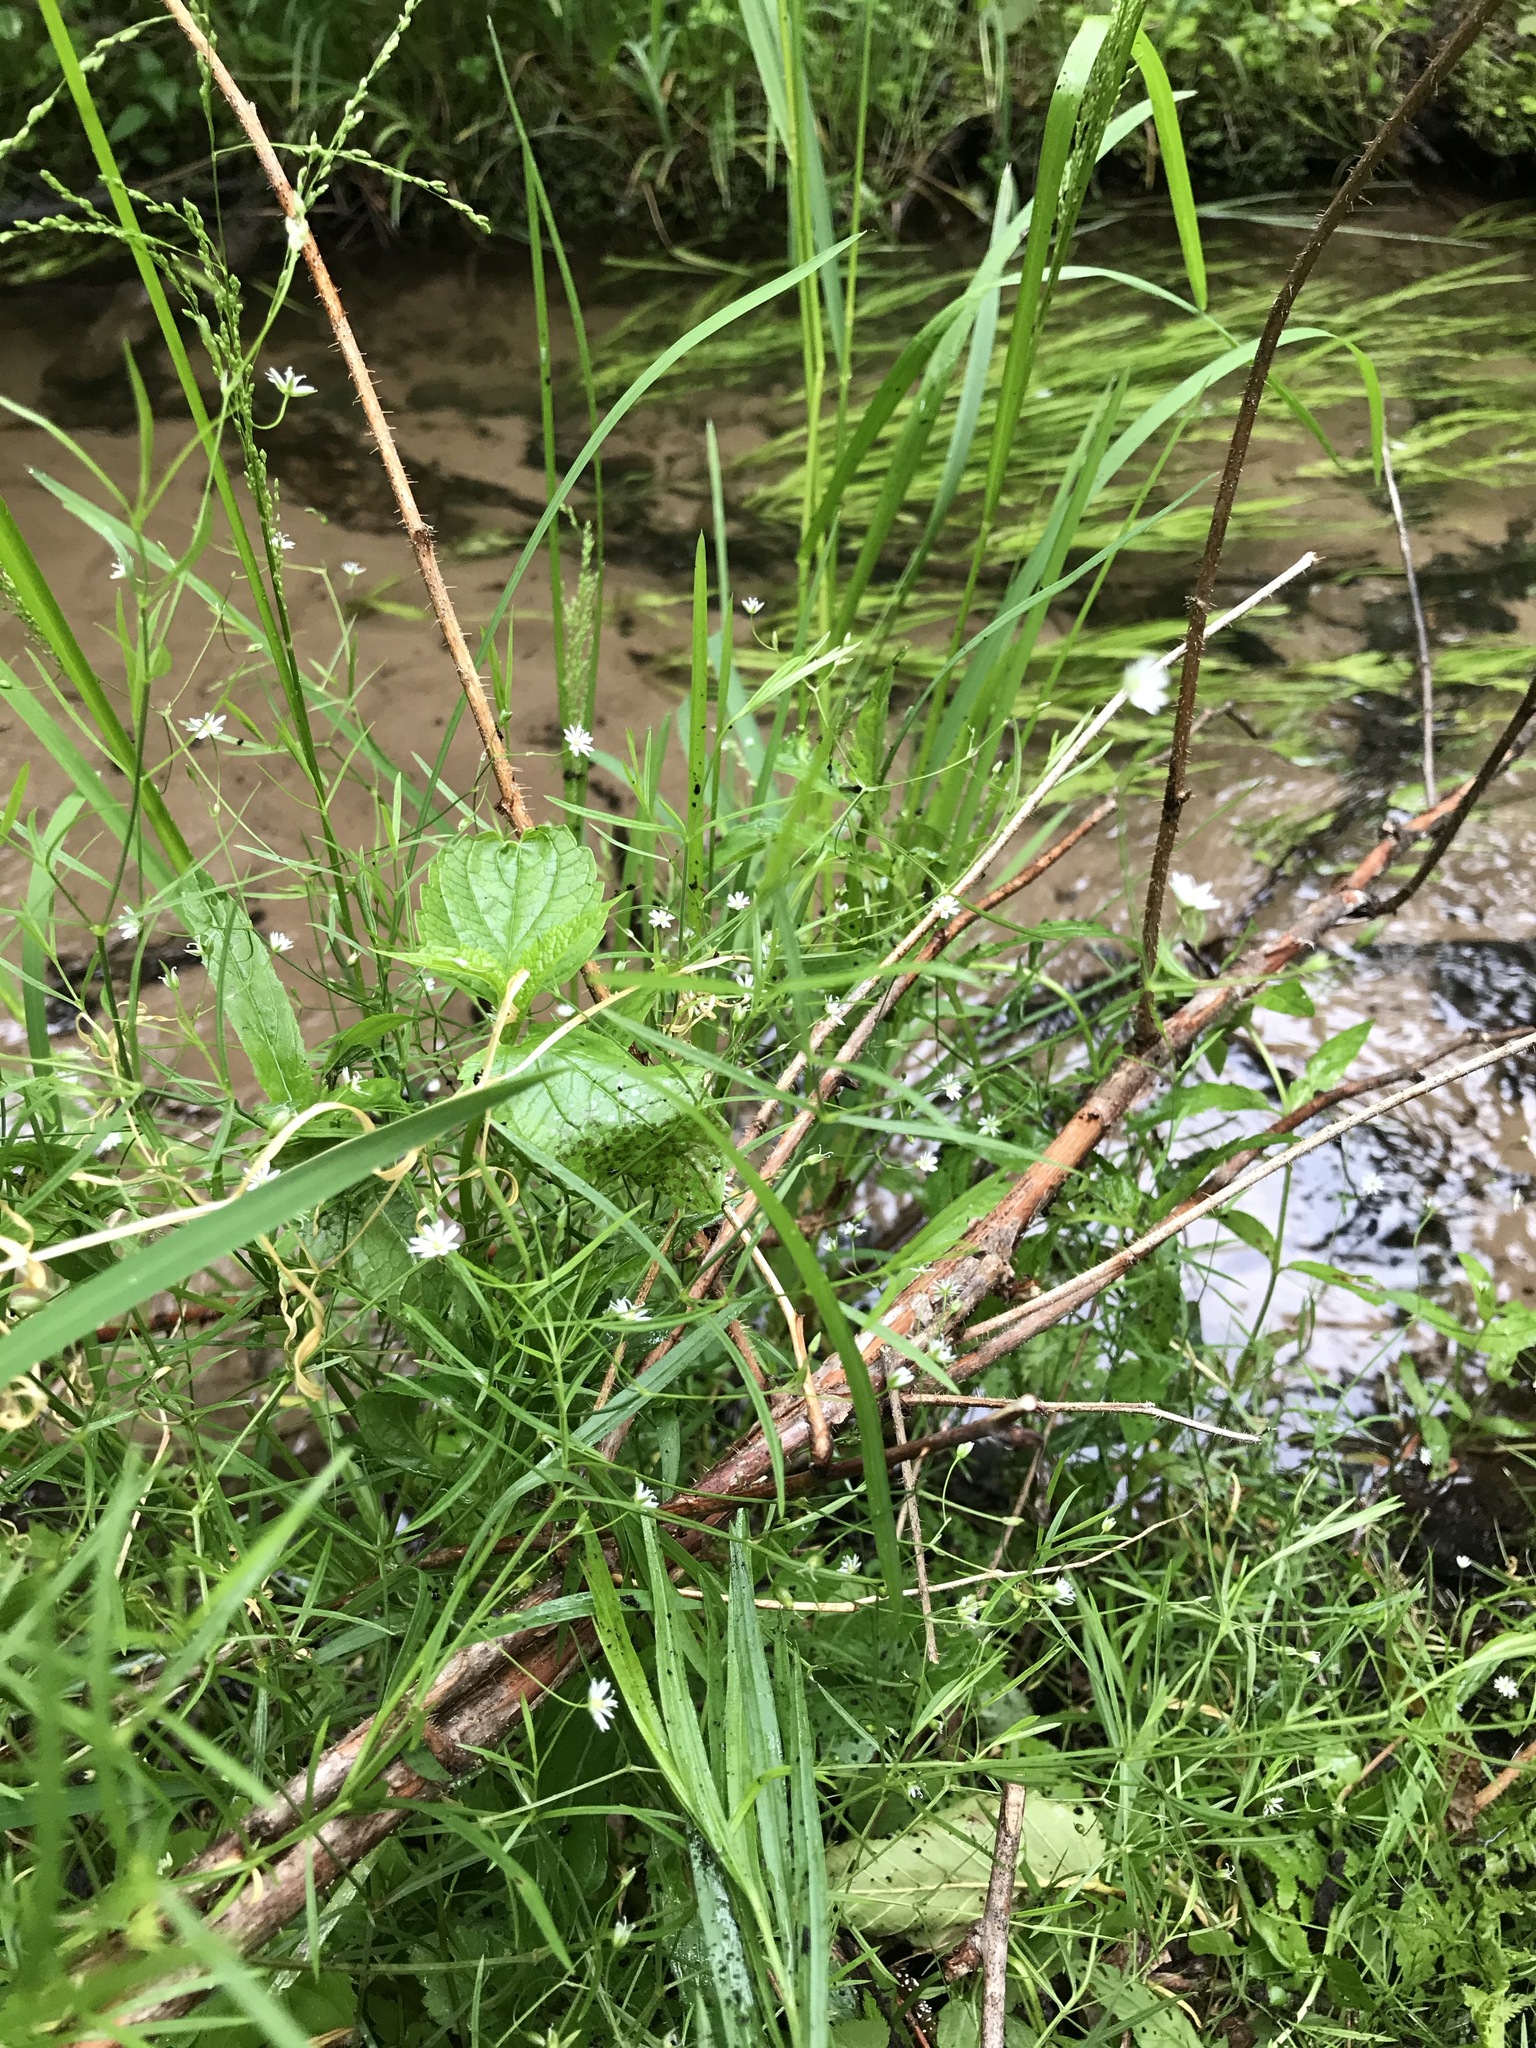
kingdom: Plantae
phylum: Tracheophyta
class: Magnoliopsida
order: Caryophyllales
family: Caryophyllaceae
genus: Stellaria
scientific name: Stellaria longifolia
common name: Long-leaved chickweed
